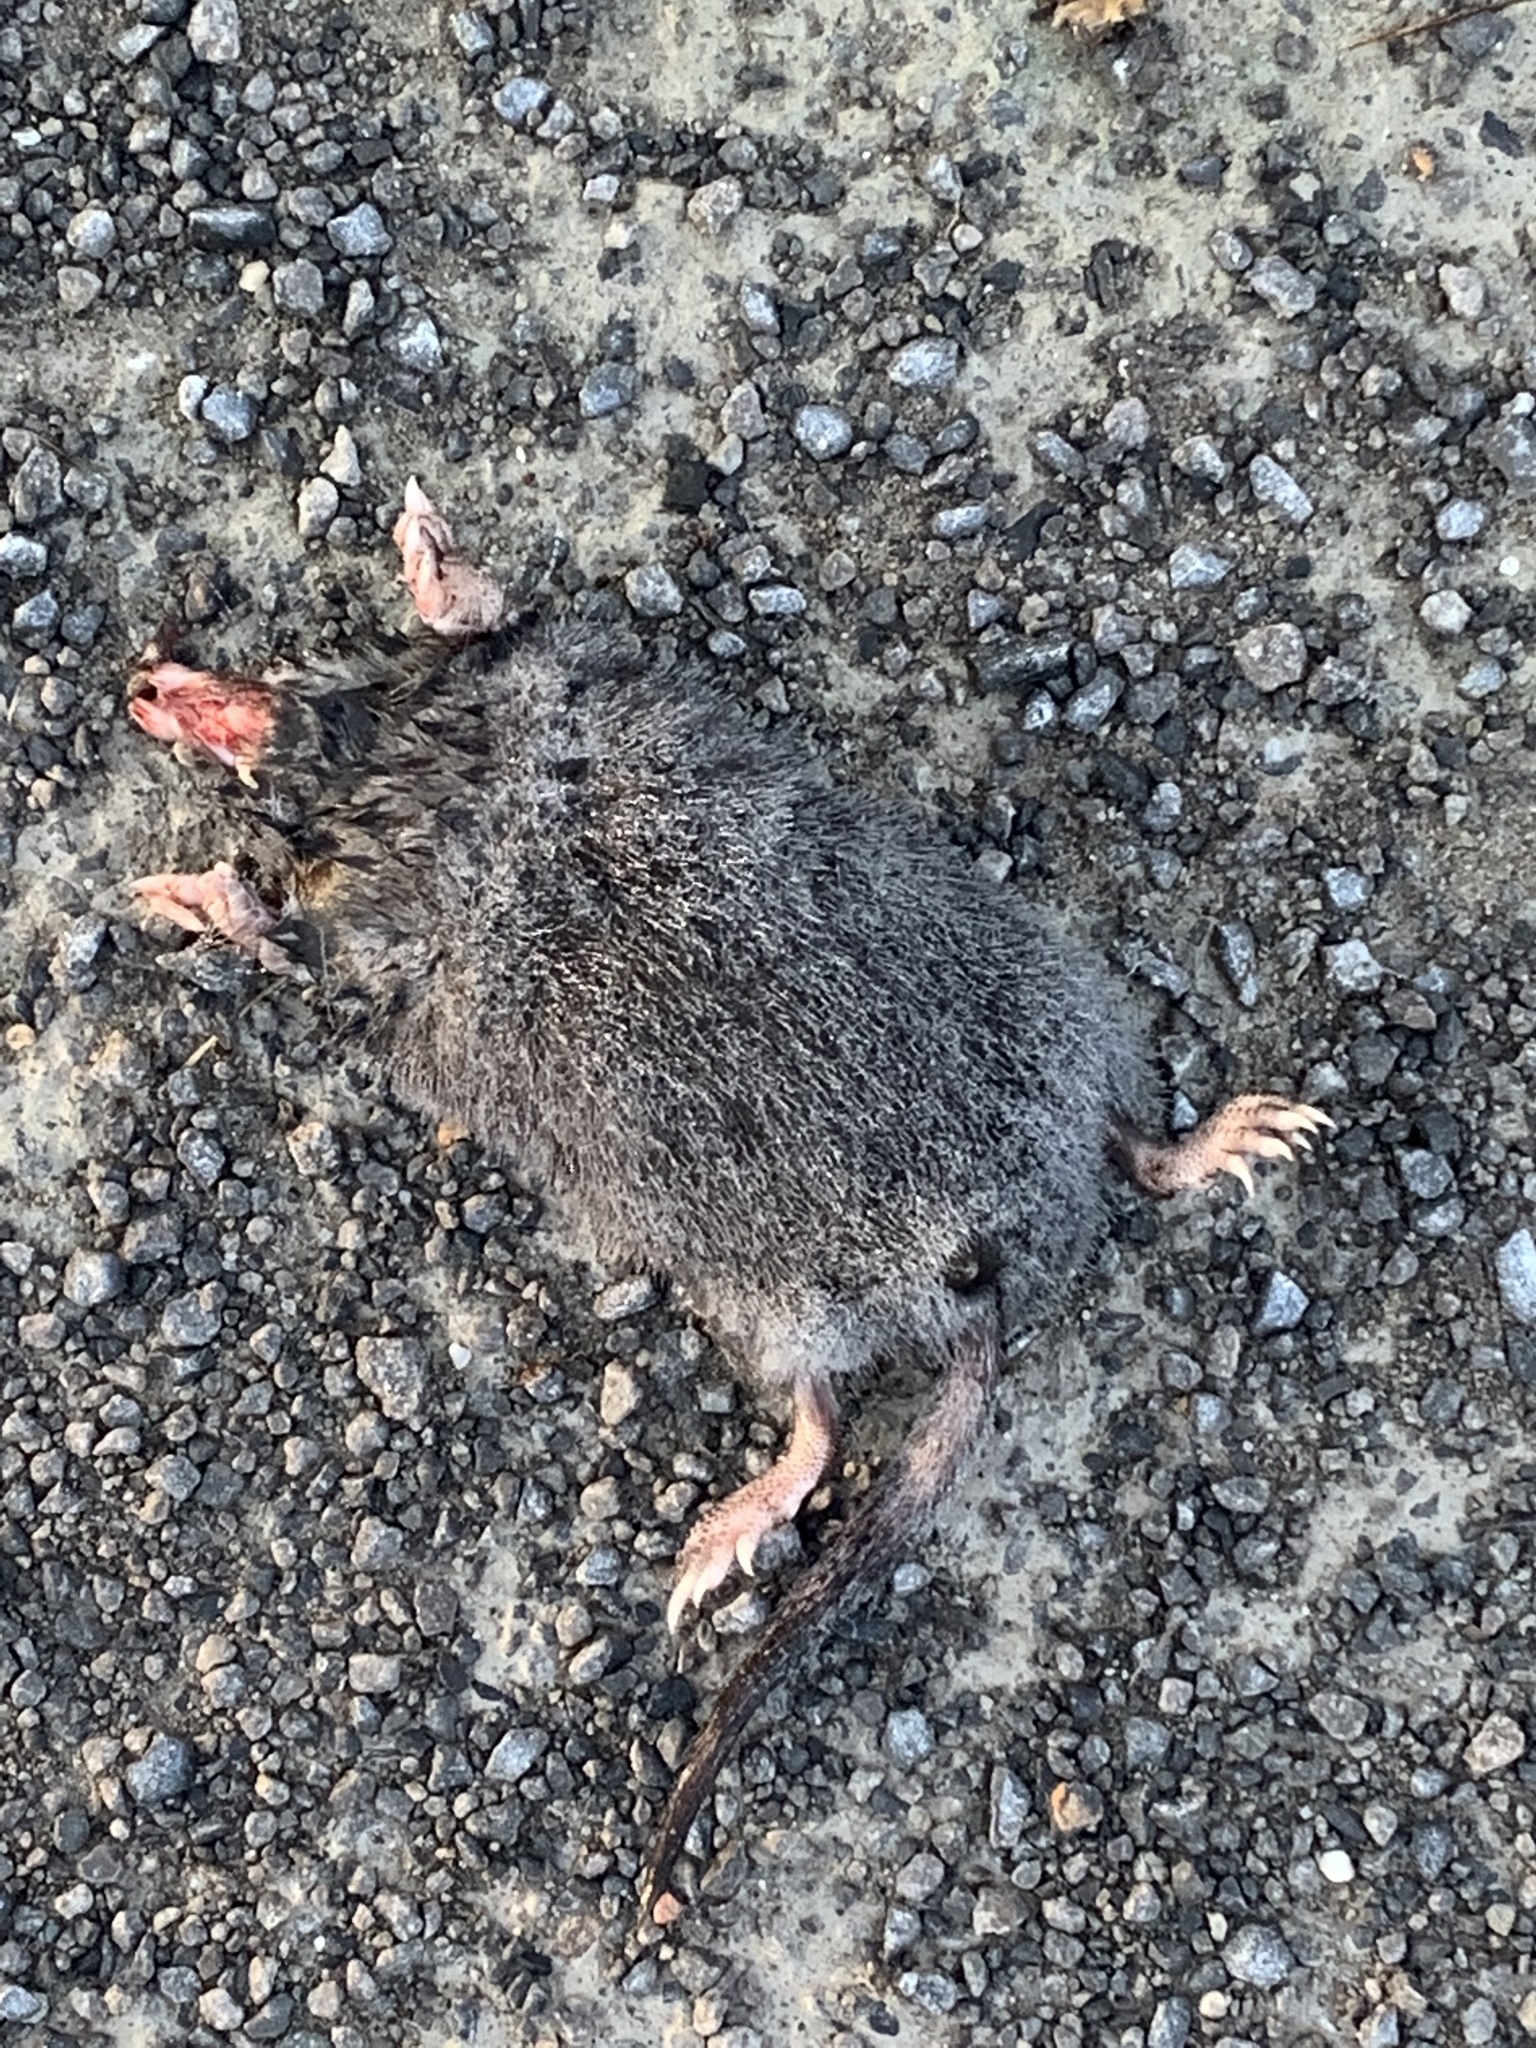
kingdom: Animalia
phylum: Chordata
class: Mammalia
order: Soricomorpha
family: Talpidae
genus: Condylura
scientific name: Condylura cristata
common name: Star-nosed mole
